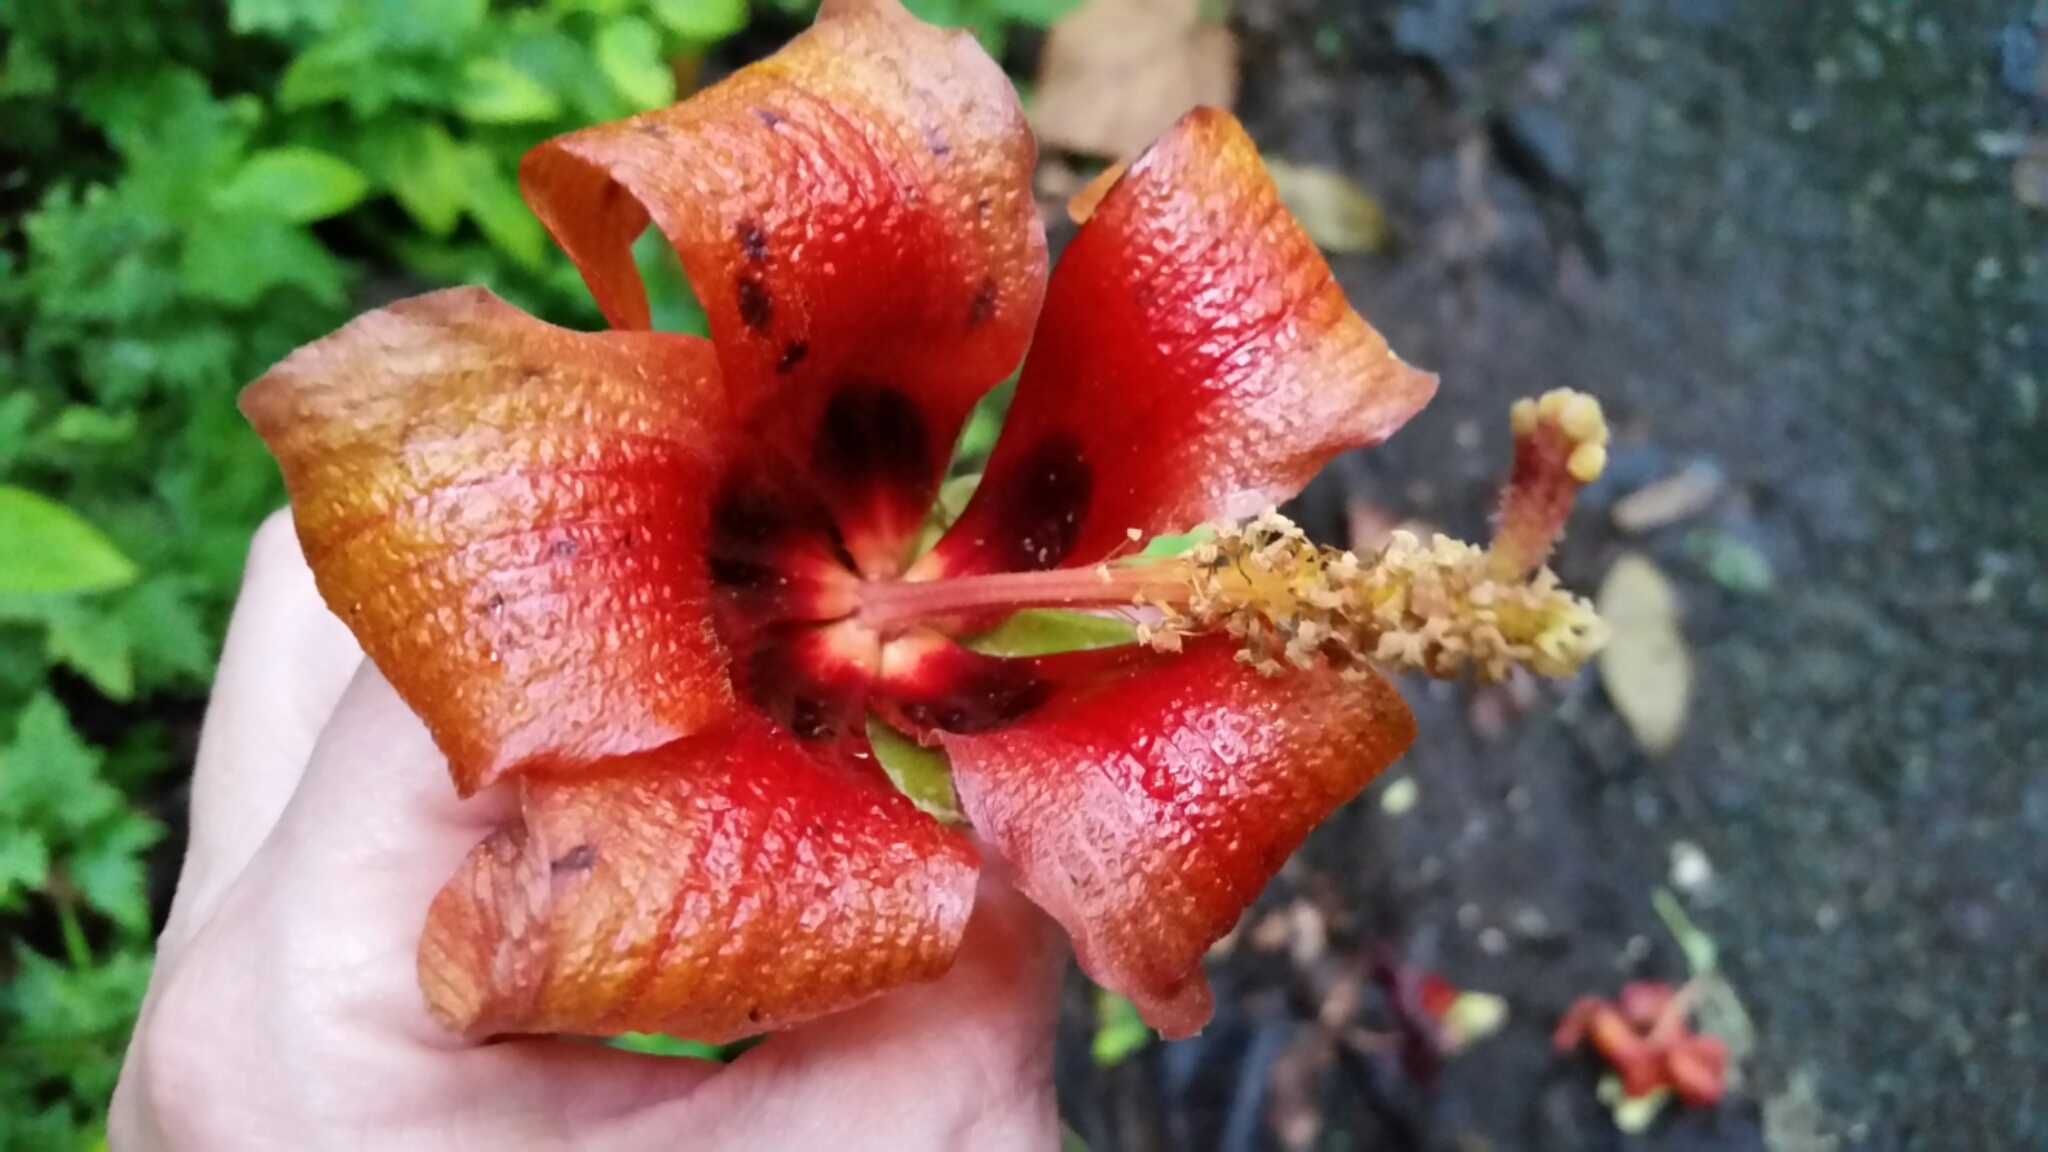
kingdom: Plantae
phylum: Tracheophyta
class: Magnoliopsida
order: Malvales
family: Malvaceae
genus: Talipariti
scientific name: Talipariti
